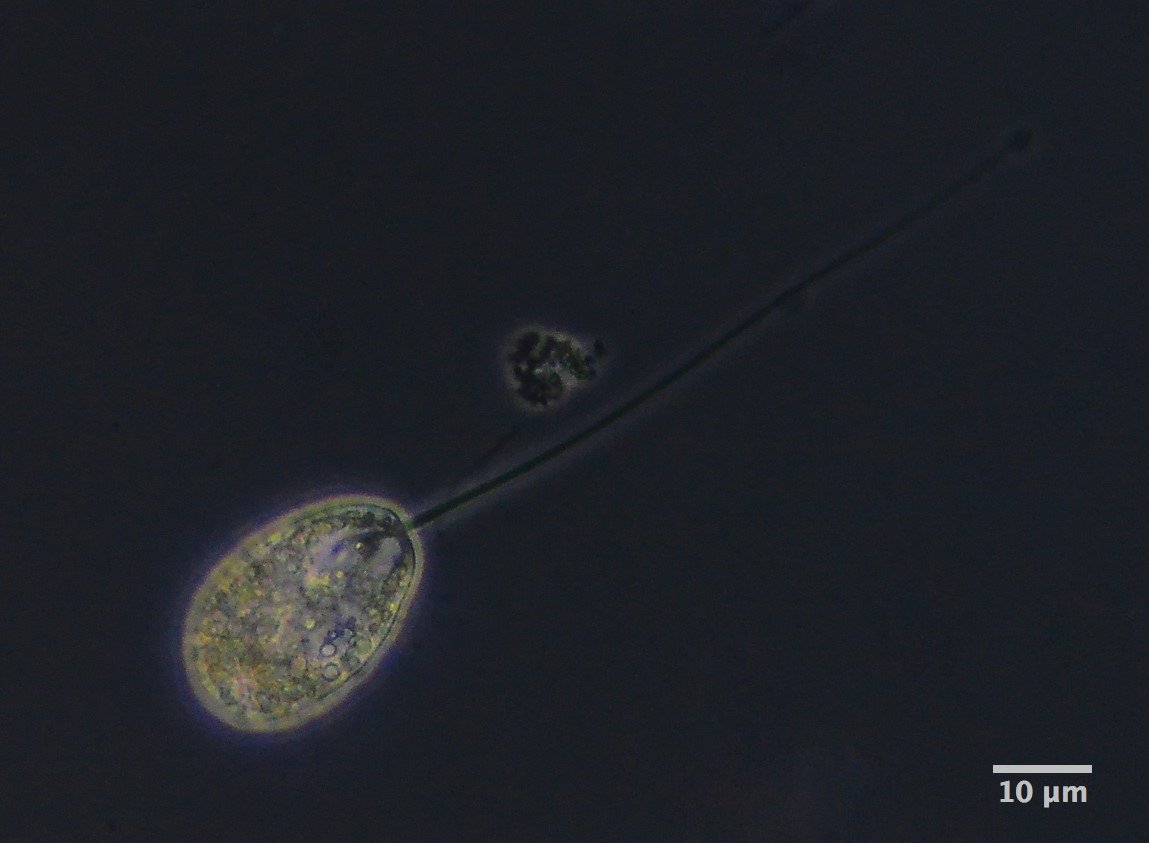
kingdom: Protozoa
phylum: Euglenozoa
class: Peranemea
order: Anisonemida
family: Anisonemidae
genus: Anisonema
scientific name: Anisonema
